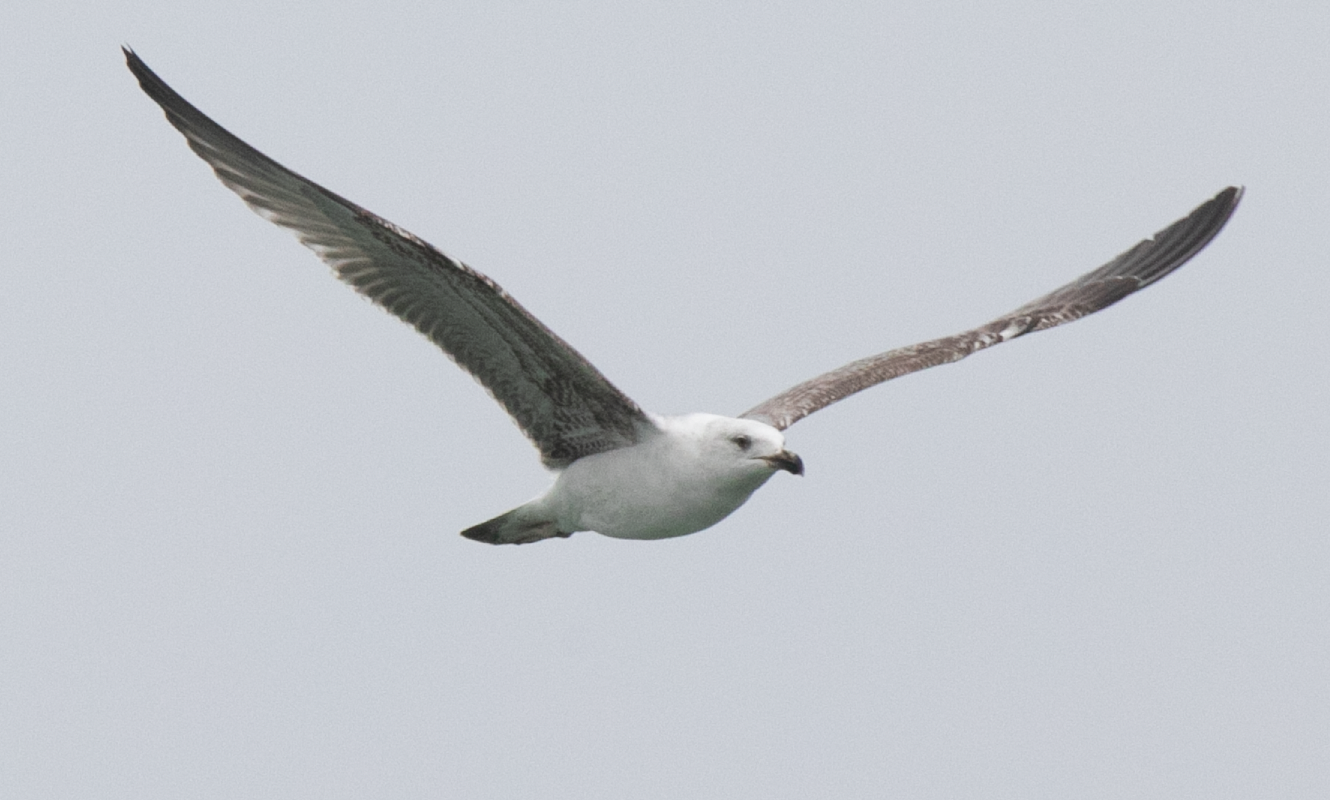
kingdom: Animalia
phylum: Chordata
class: Aves
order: Charadriiformes
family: Laridae
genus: Larus
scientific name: Larus michahellis
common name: Yellow-legged gull
